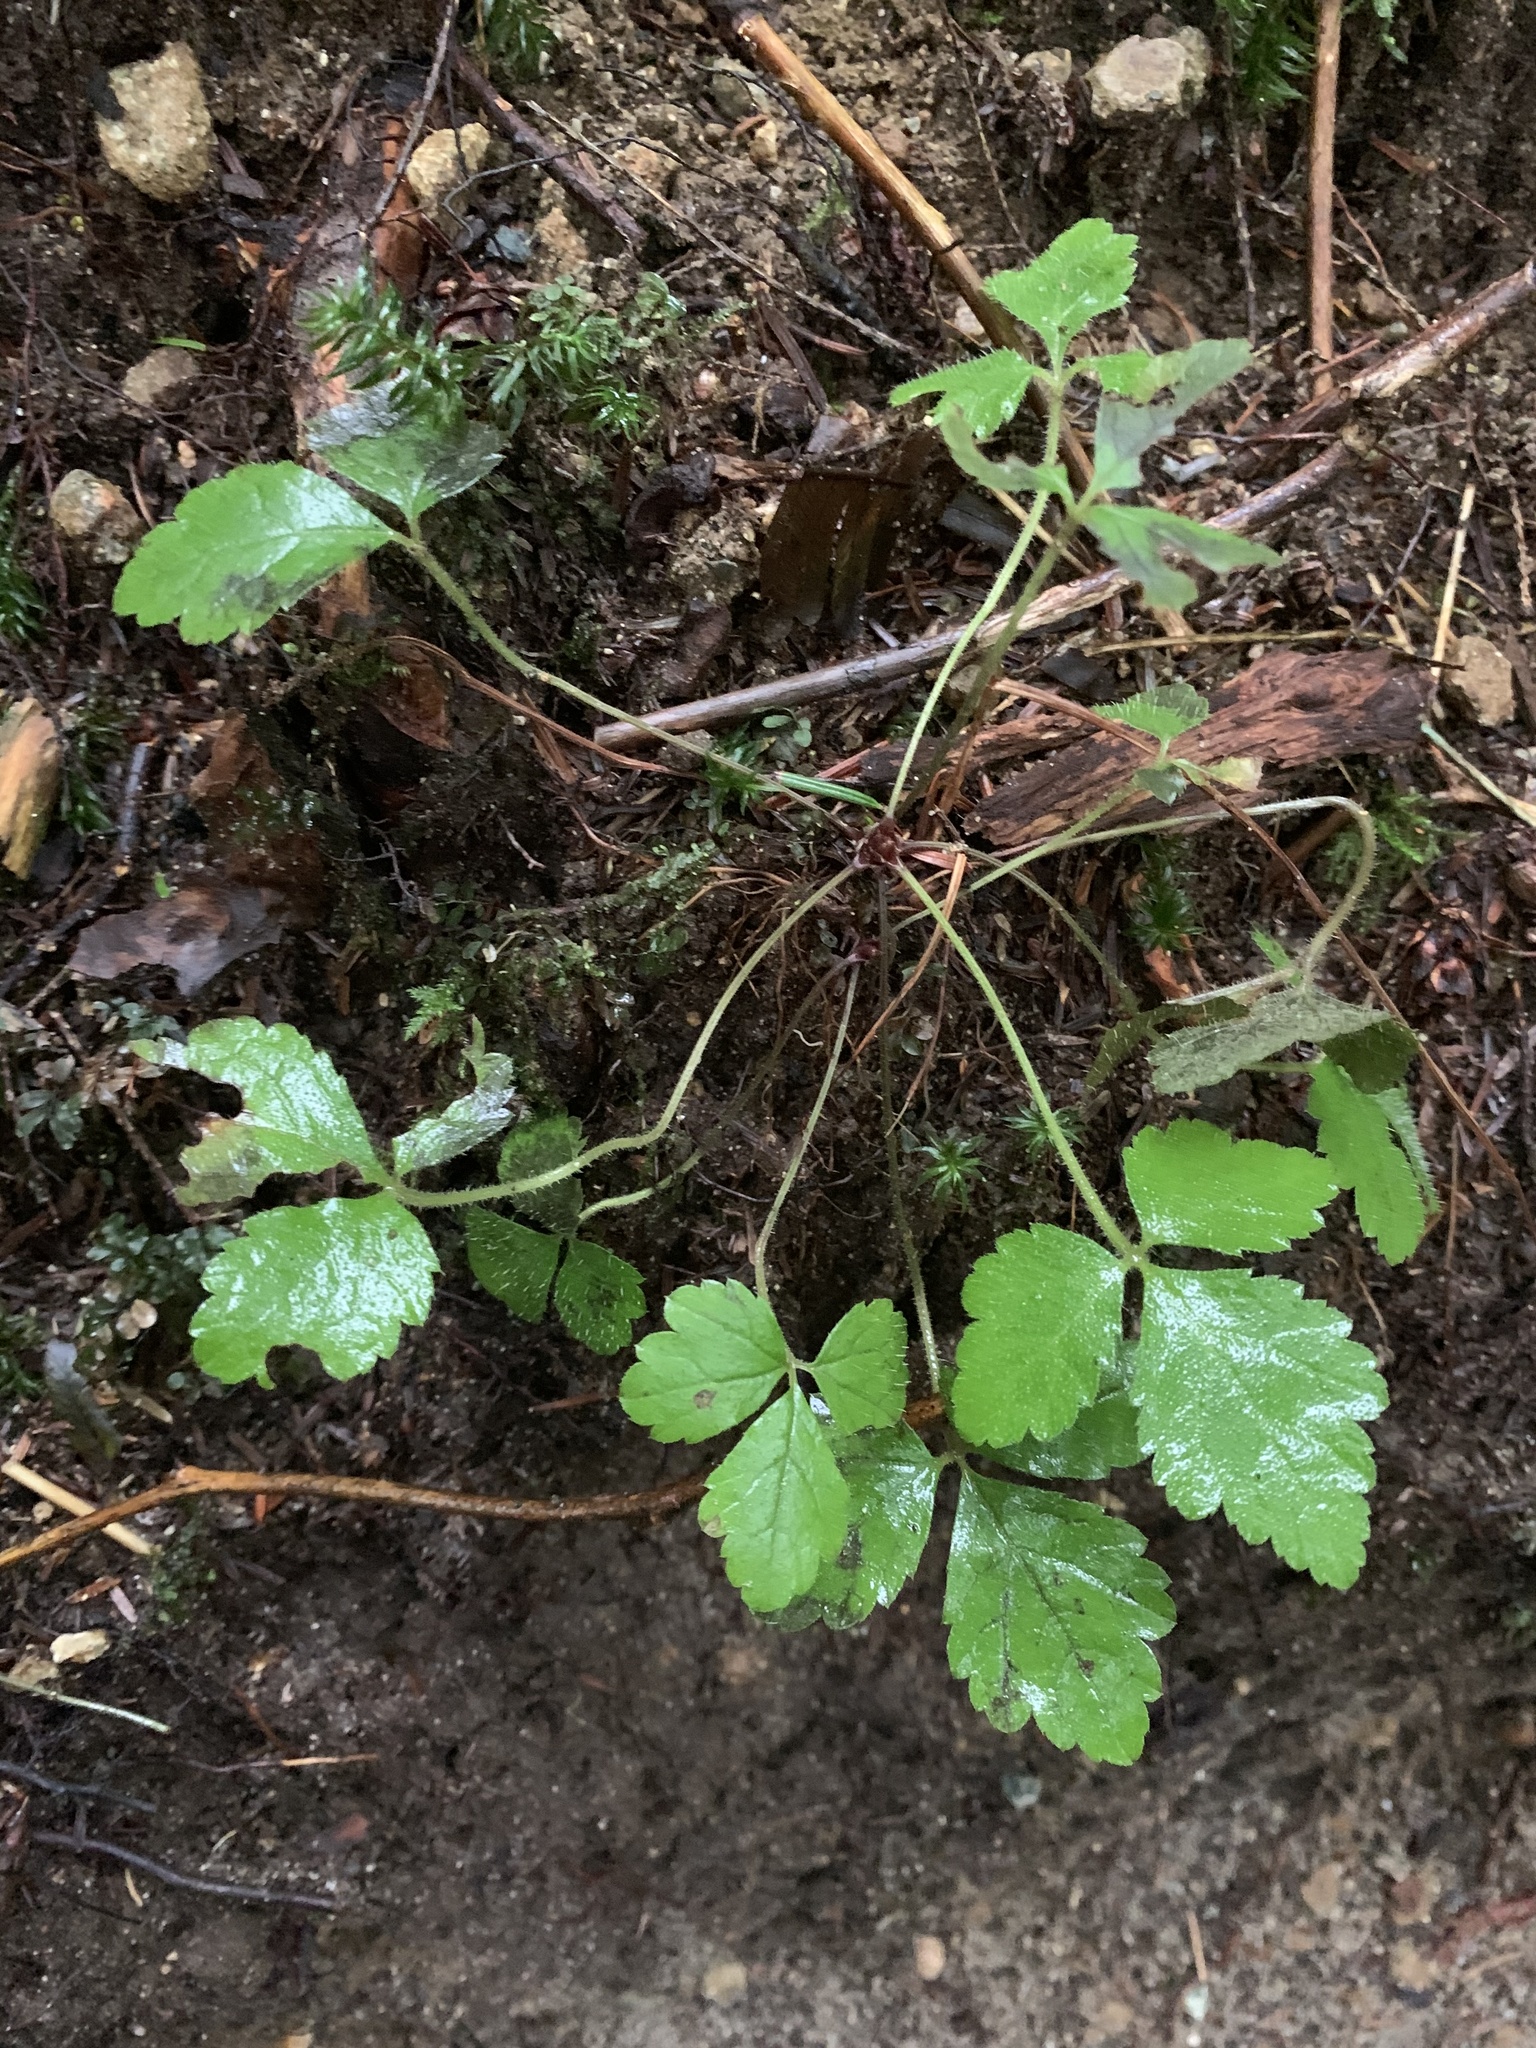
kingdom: Plantae
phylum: Tracheophyta
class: Magnoliopsida
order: Saxifragales
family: Saxifragaceae
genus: Tiarella
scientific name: Tiarella trifoliata
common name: Sugar-scoop
